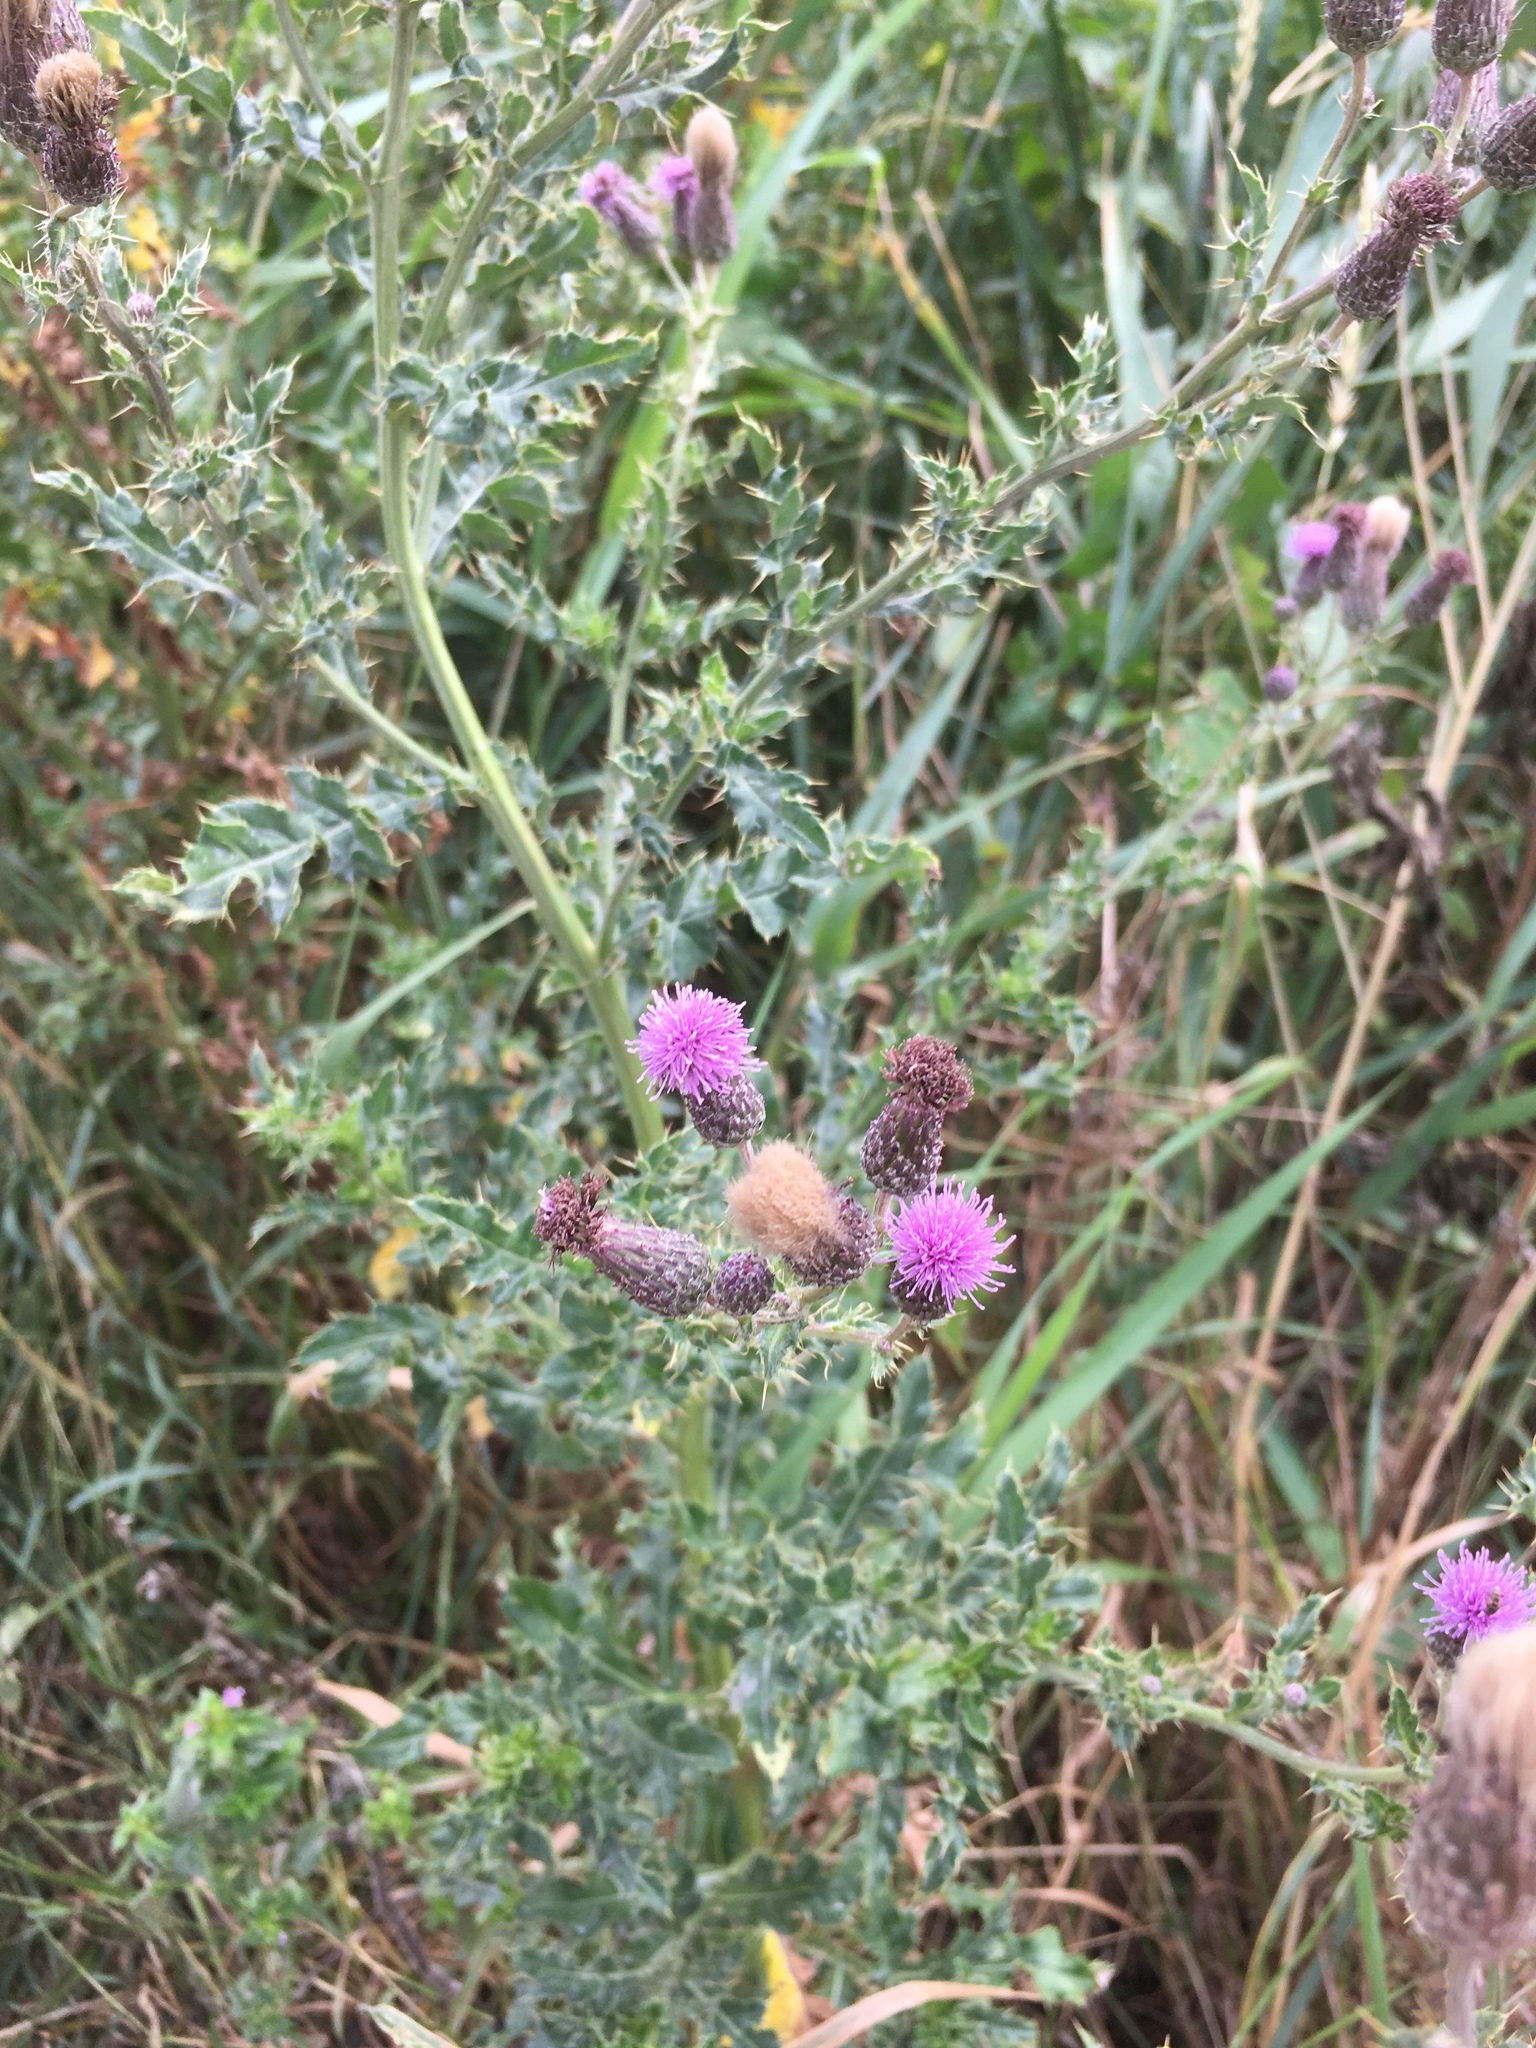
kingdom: Plantae
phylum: Tracheophyta
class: Magnoliopsida
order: Asterales
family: Asteraceae
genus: Cirsium
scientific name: Cirsium arvense
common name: Creeping thistle
